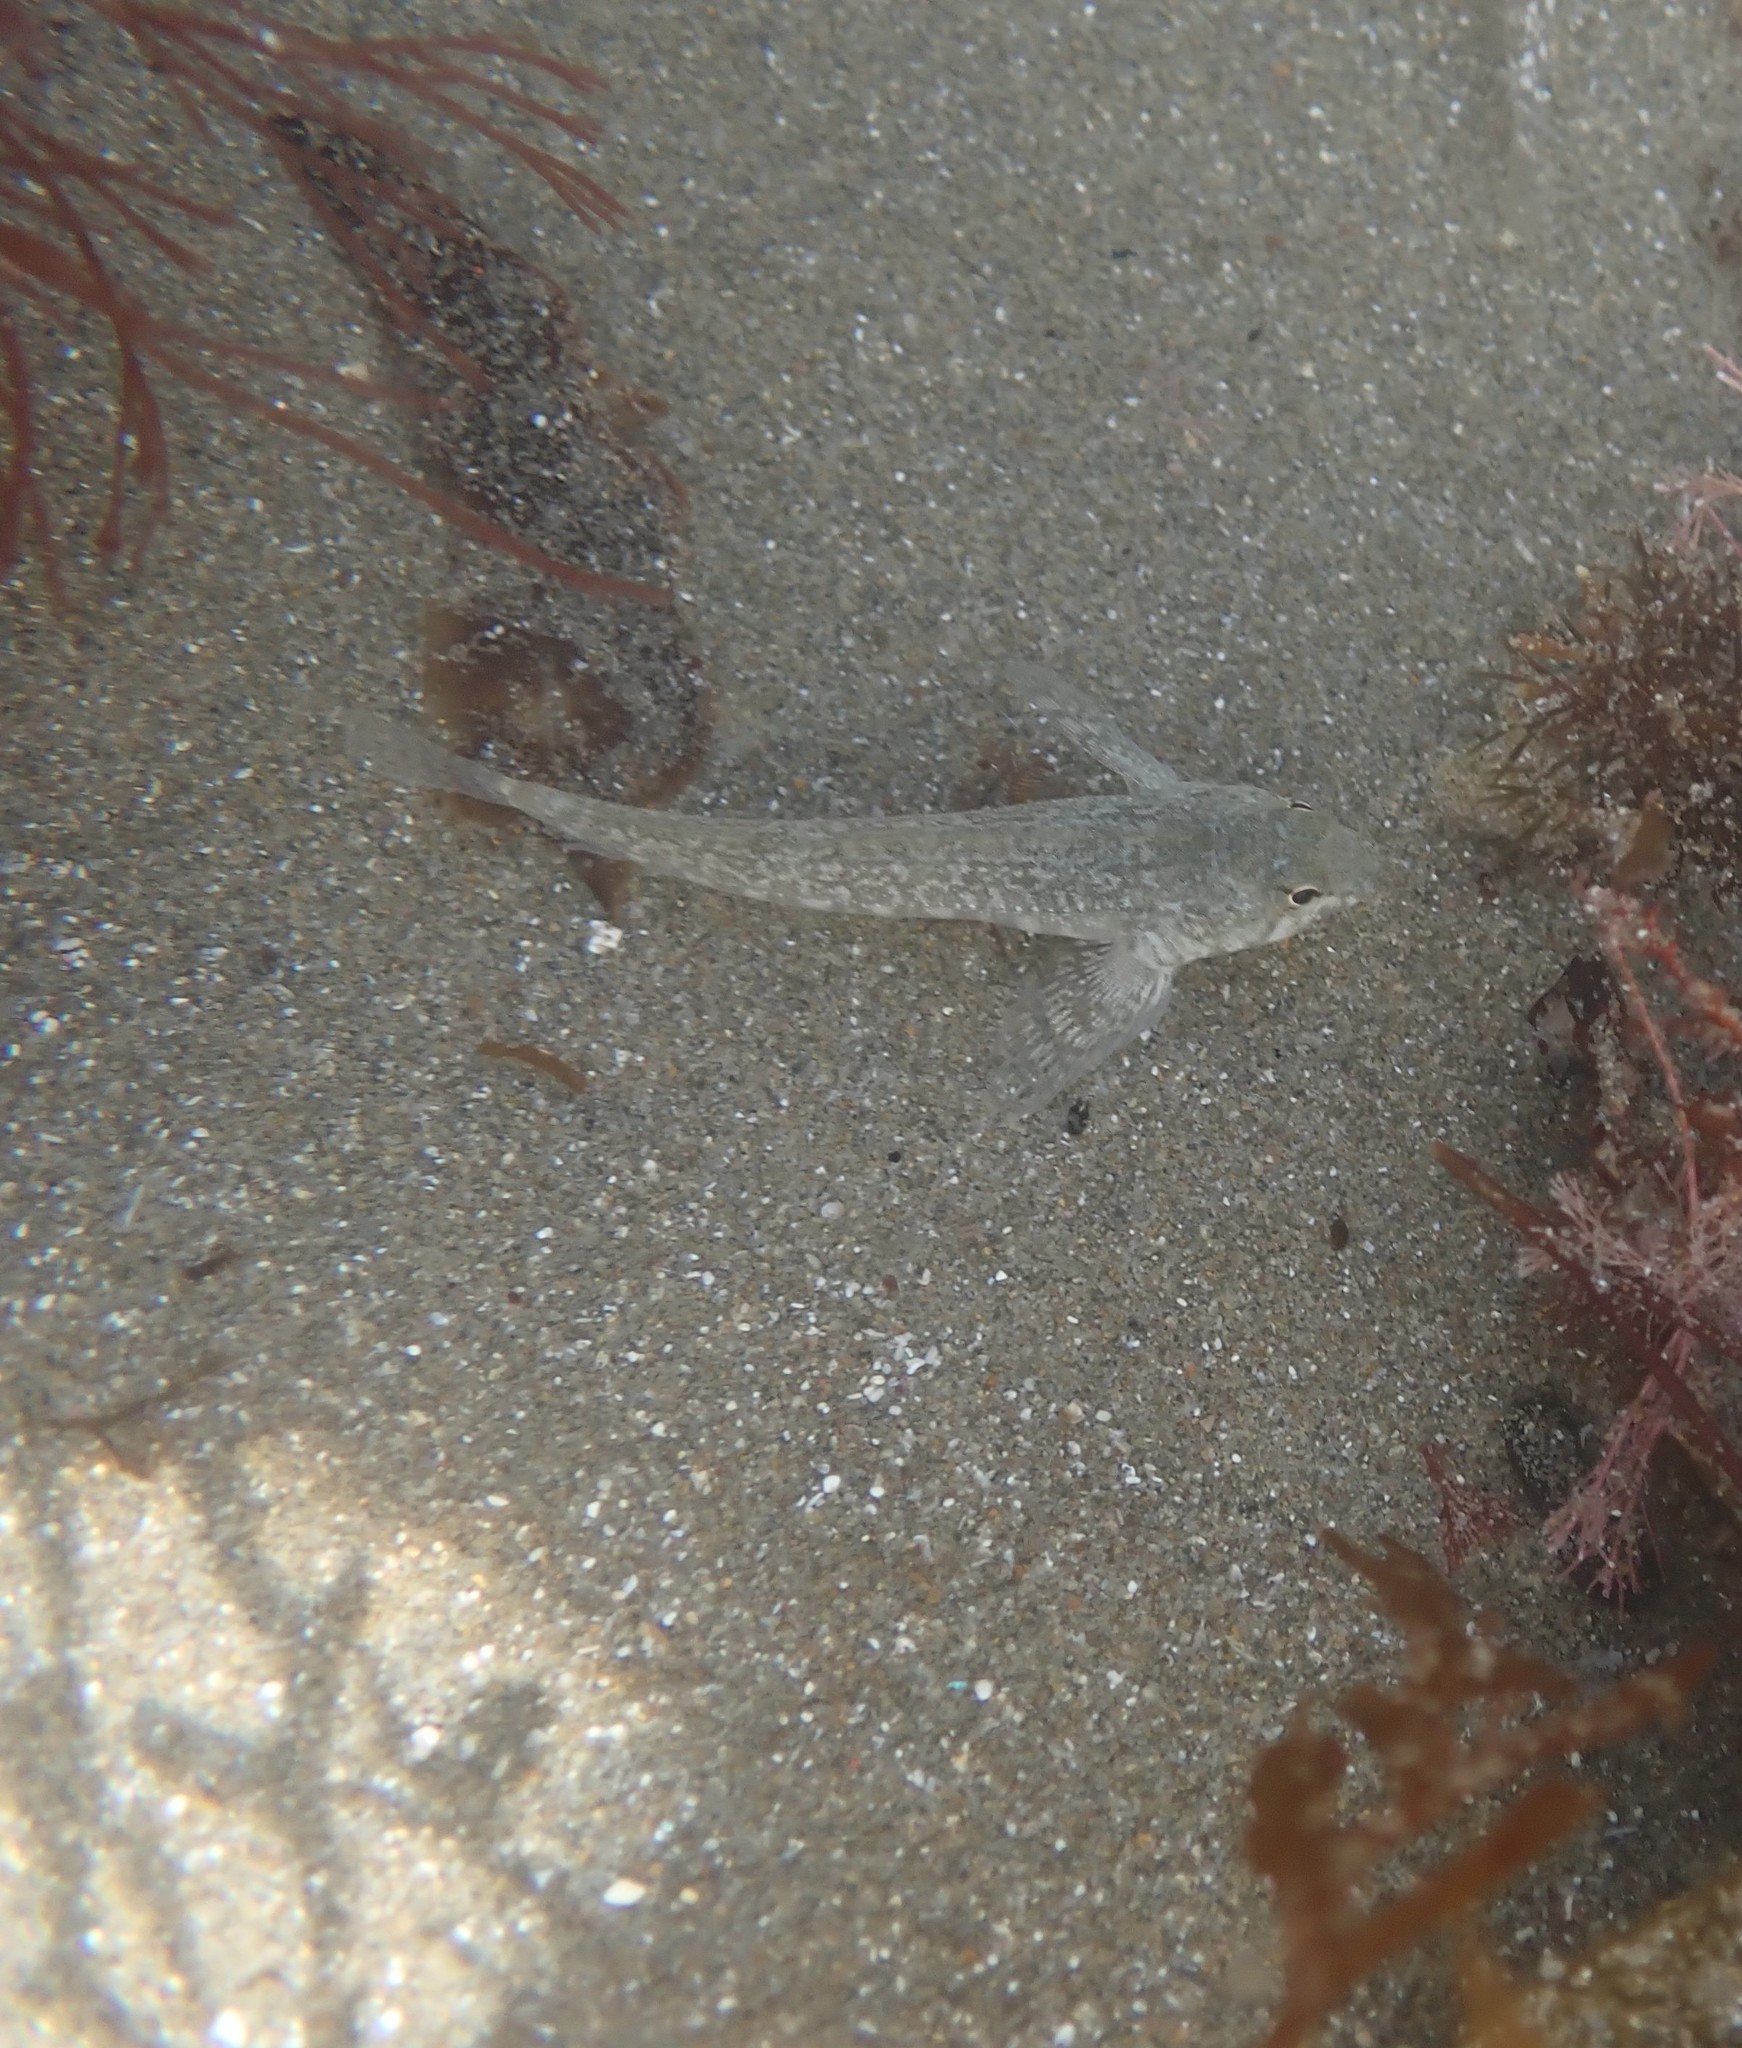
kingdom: Animalia
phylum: Chordata
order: Perciformes
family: Tripterygiidae
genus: Bellapiscis
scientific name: Bellapiscis medius
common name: Twister
